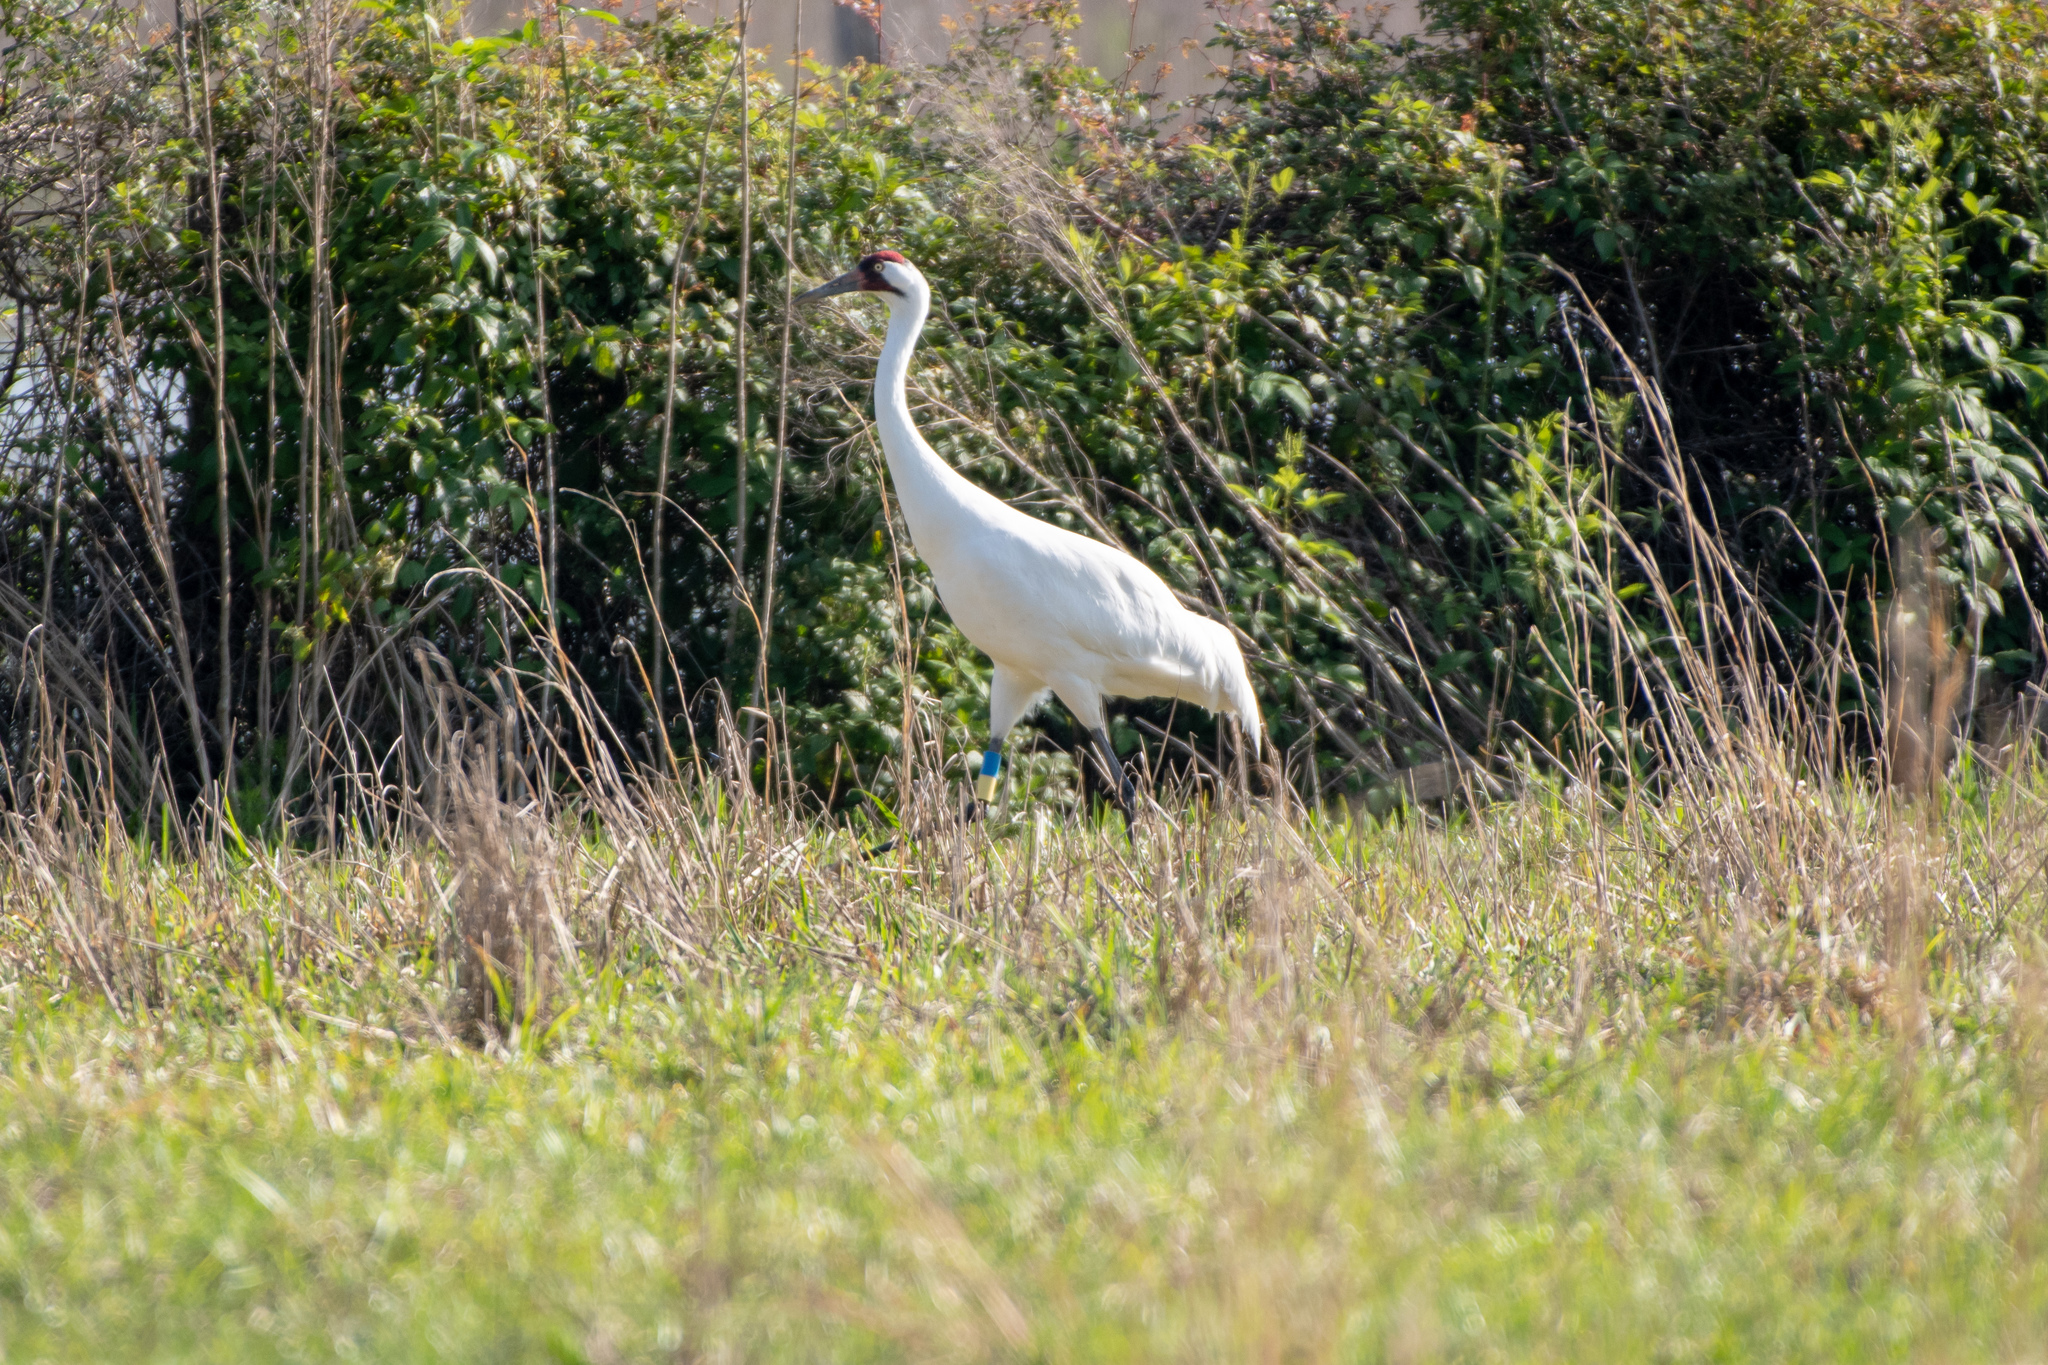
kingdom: Animalia
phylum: Chordata
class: Aves
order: Gruiformes
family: Gruidae
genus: Grus
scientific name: Grus americana
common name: Whooping crane
